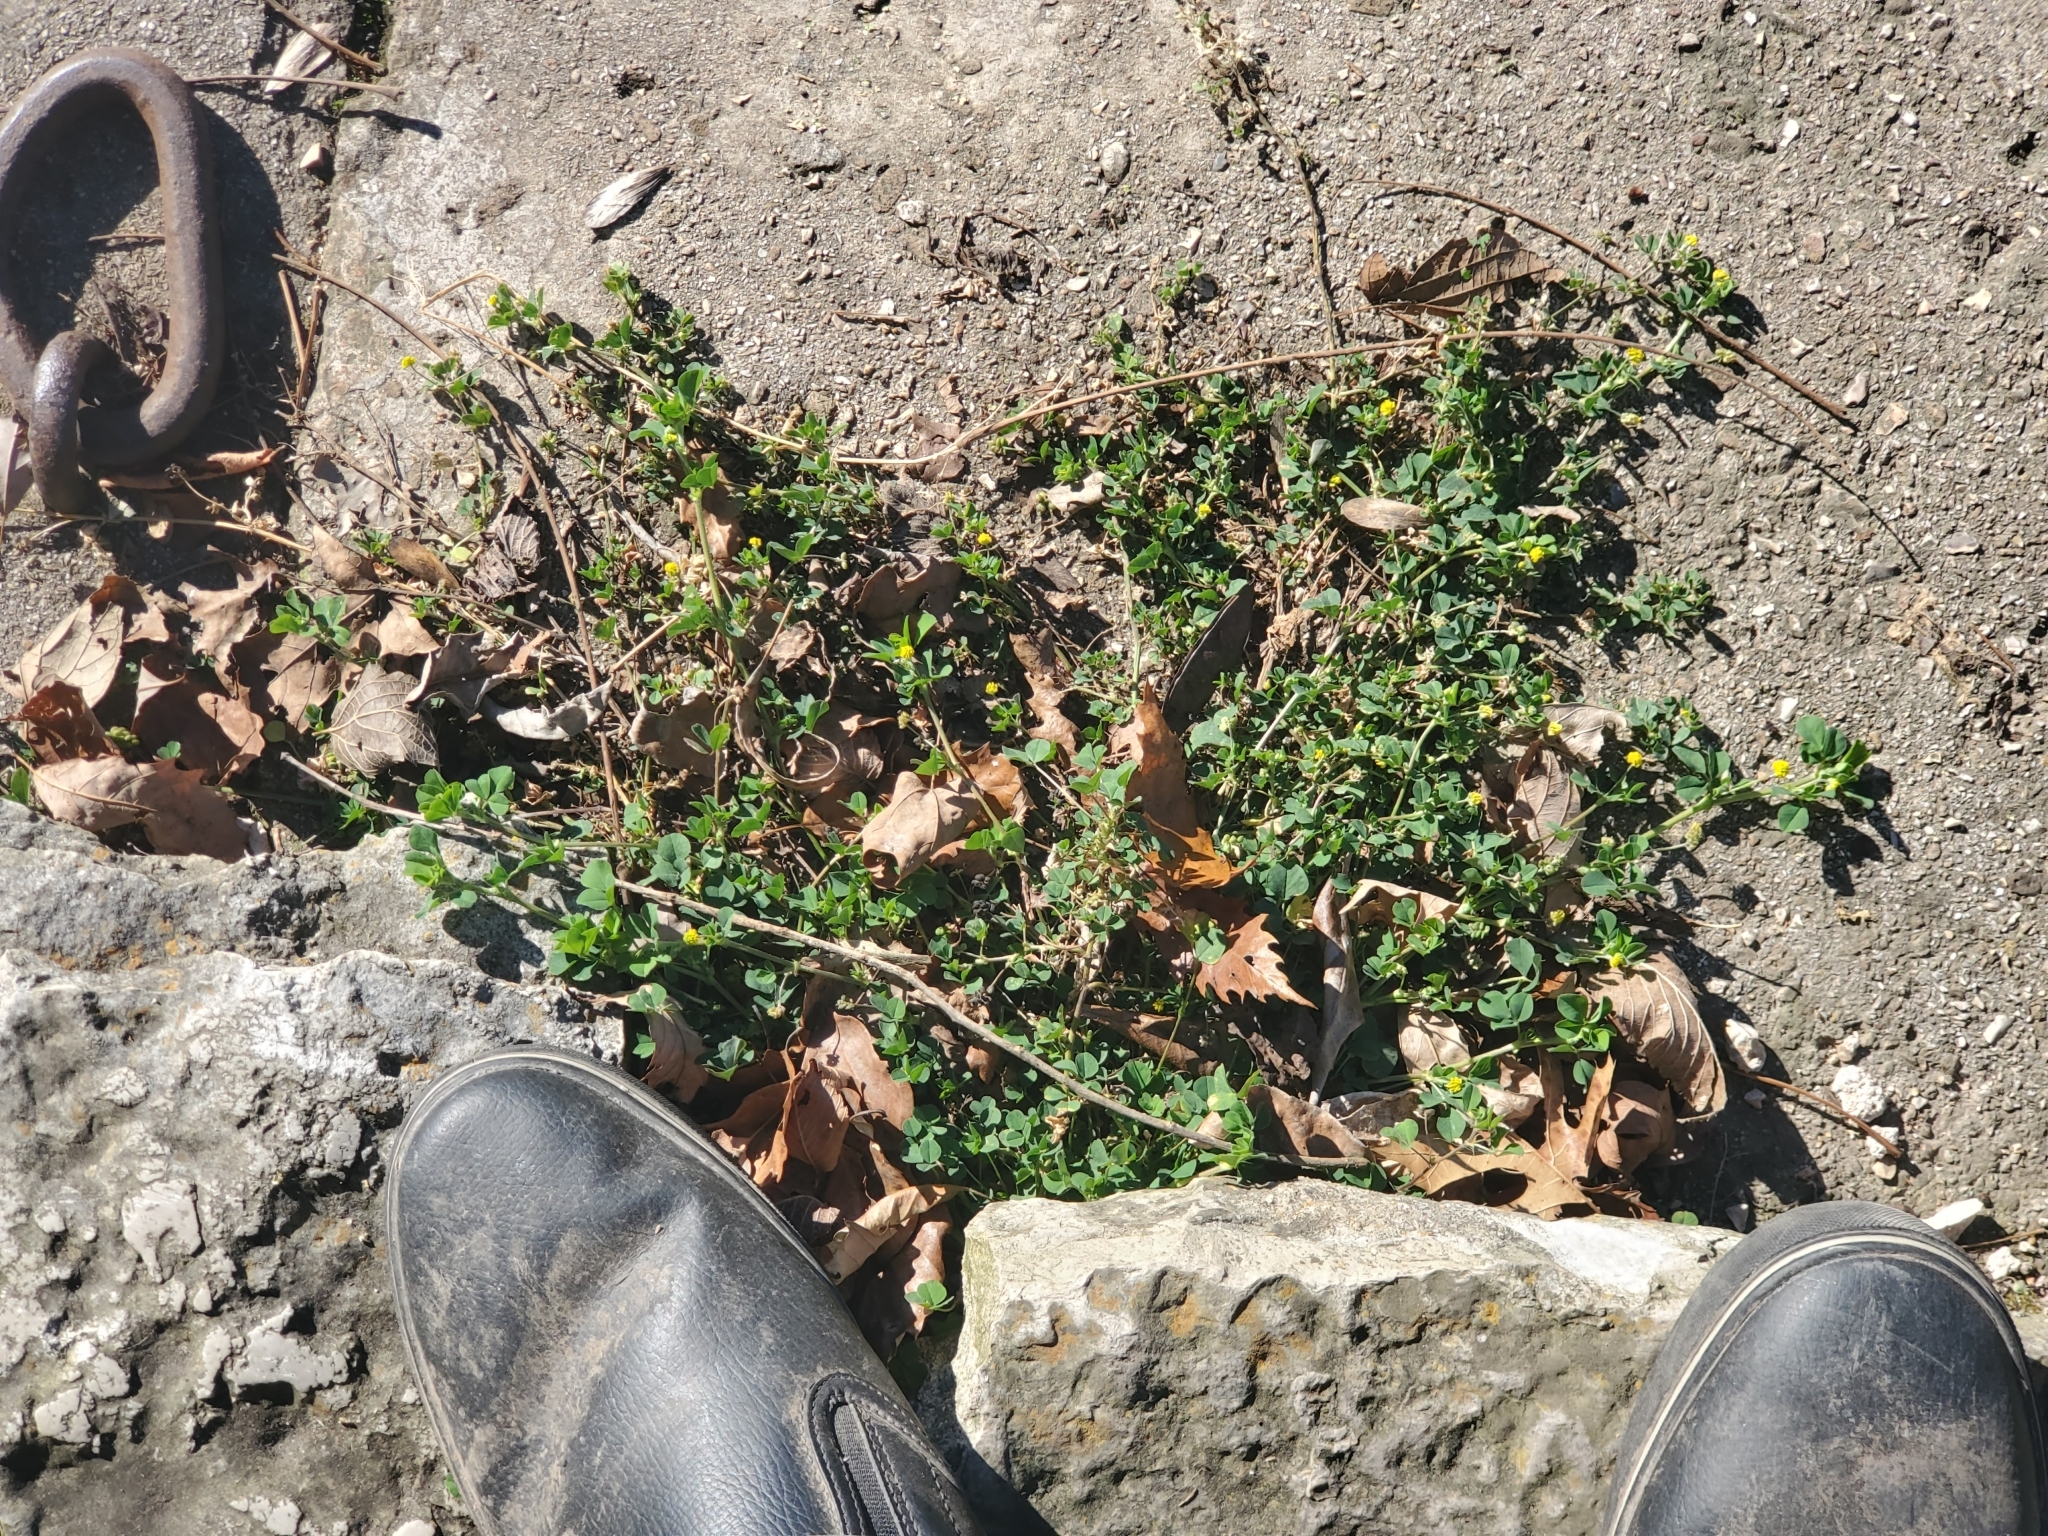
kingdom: Plantae
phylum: Tracheophyta
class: Magnoliopsida
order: Fabales
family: Fabaceae
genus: Medicago
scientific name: Medicago lupulina
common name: Black medick
